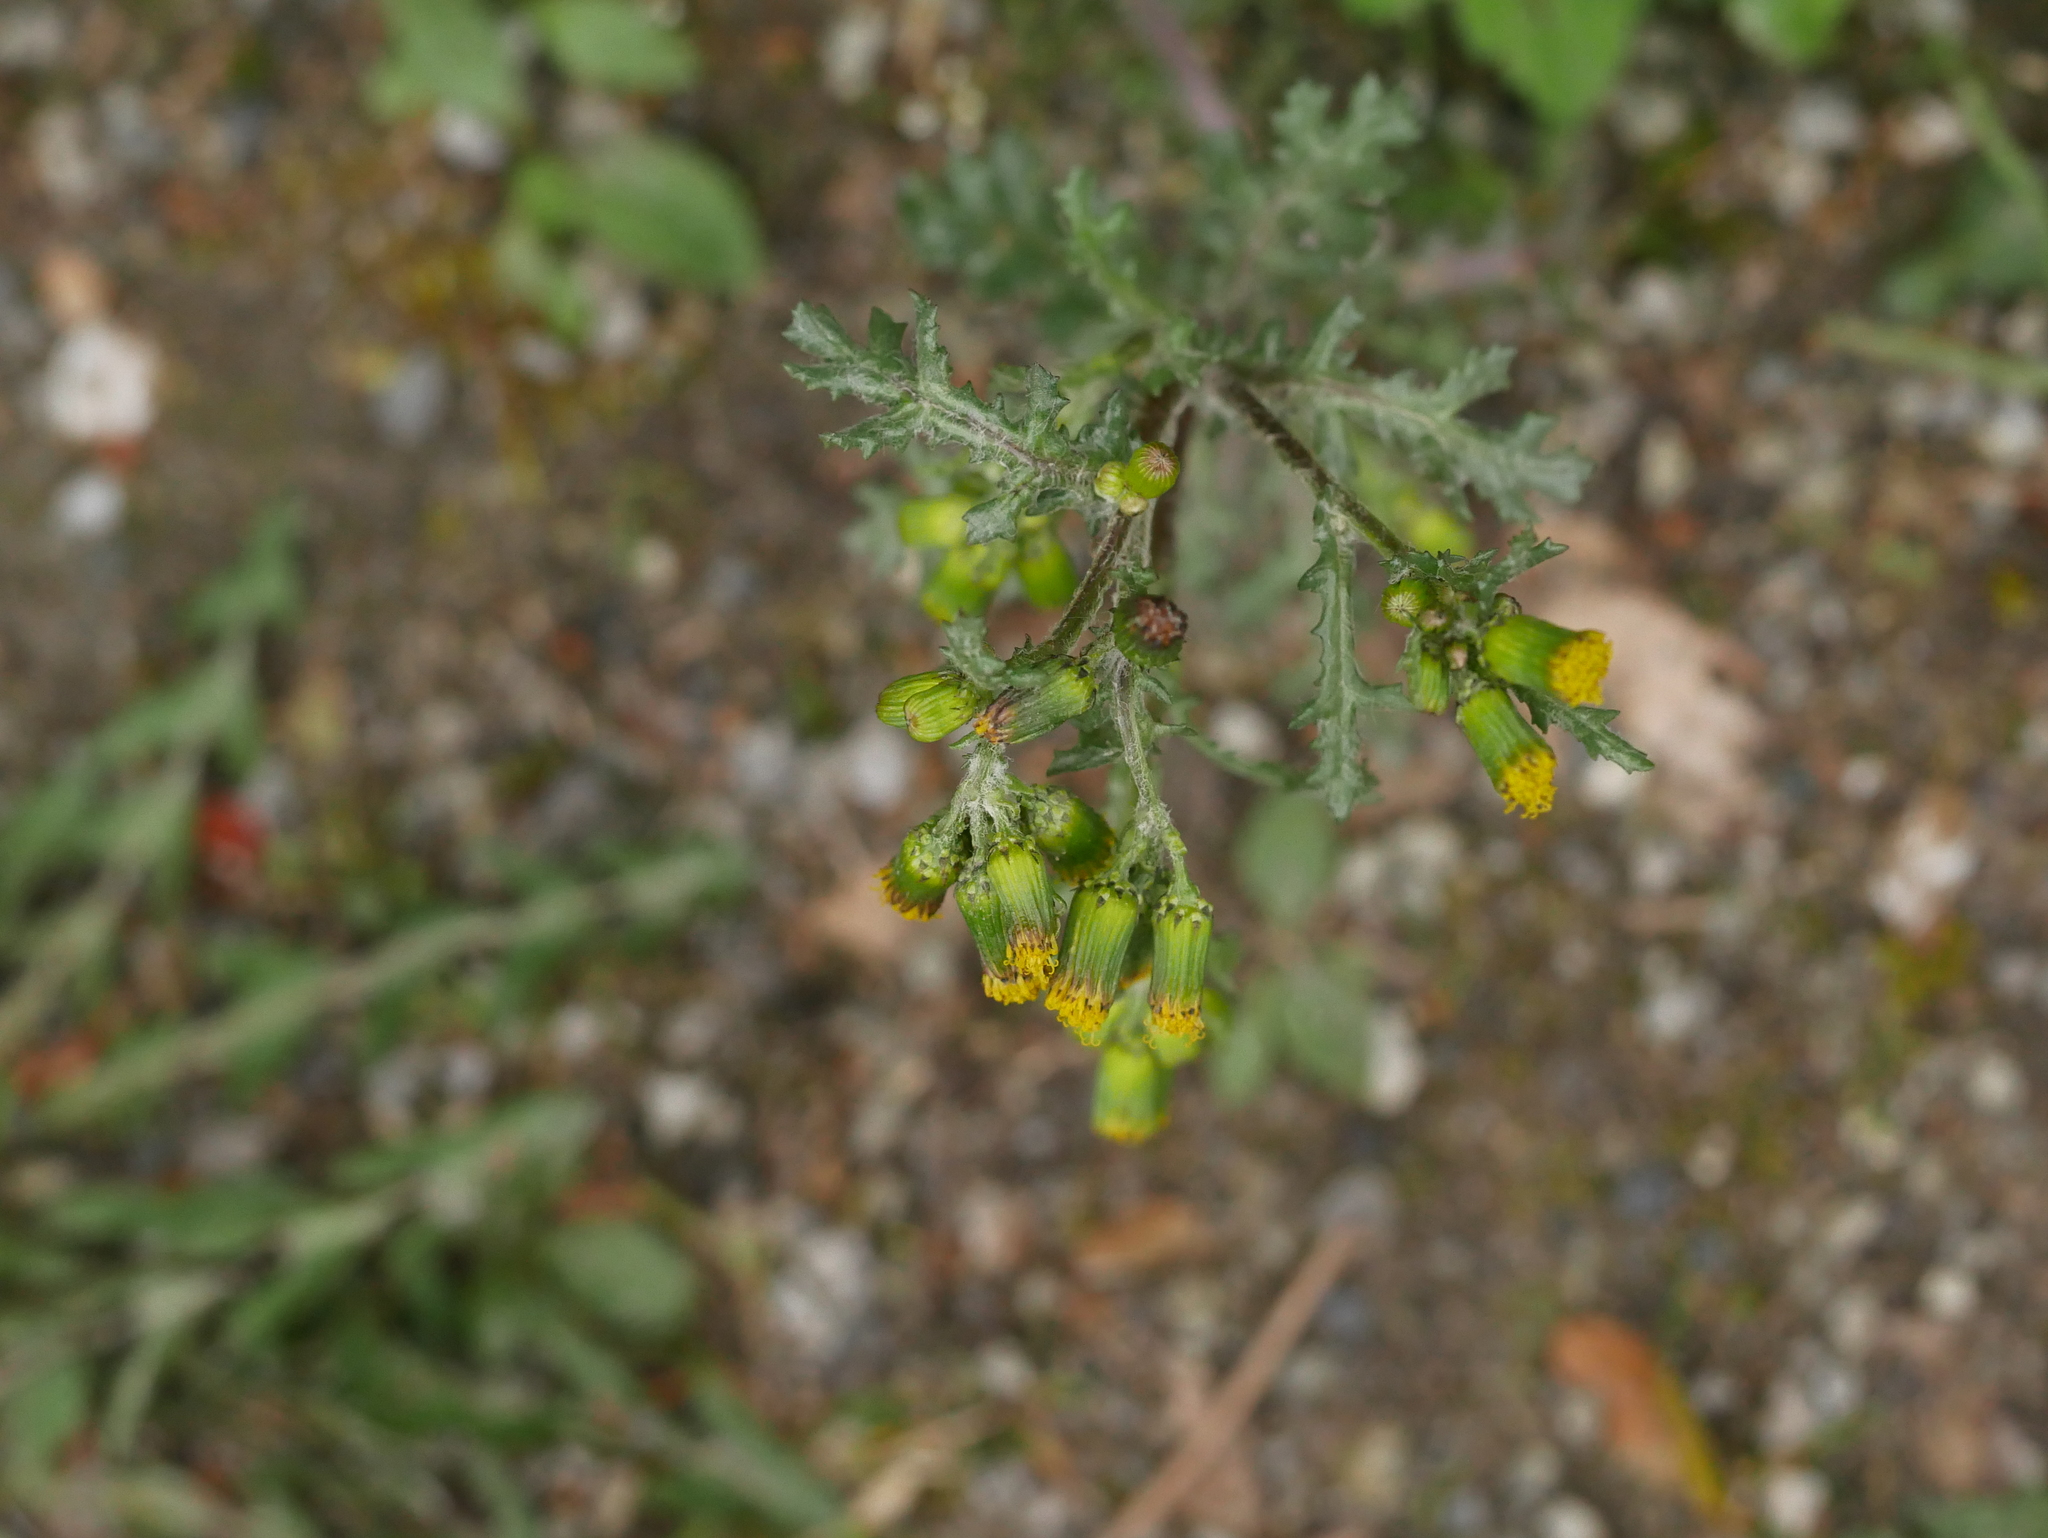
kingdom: Plantae
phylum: Tracheophyta
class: Magnoliopsida
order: Asterales
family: Asteraceae
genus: Senecio
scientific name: Senecio vulgaris
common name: Old-man-in-the-spring
